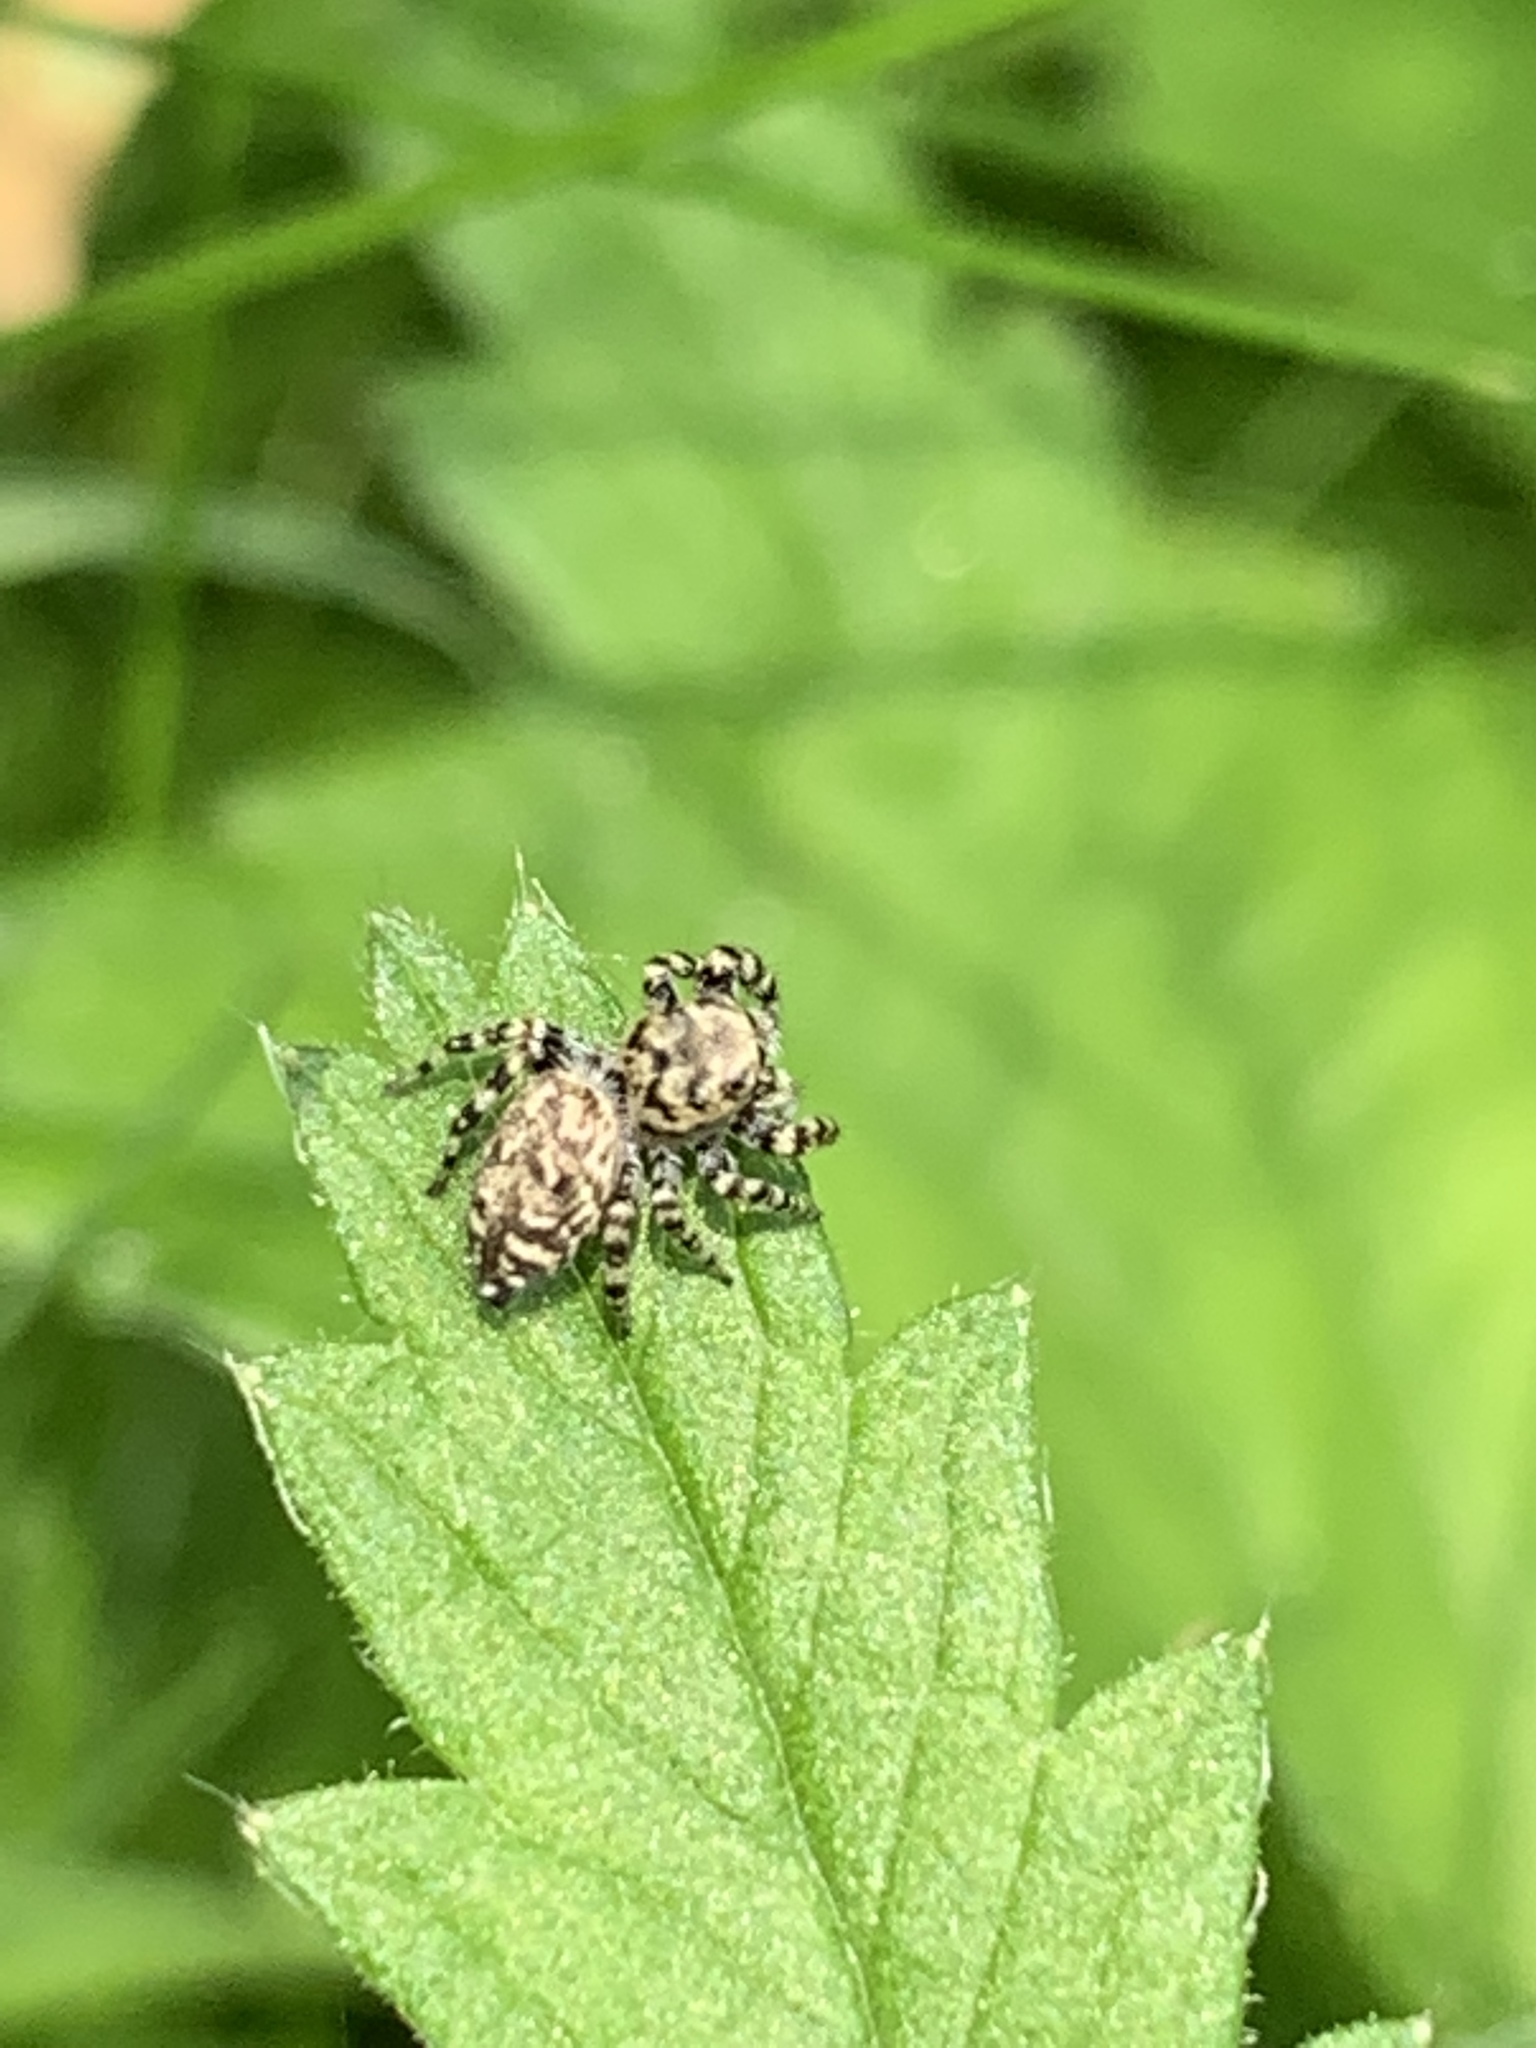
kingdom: Animalia
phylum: Arthropoda
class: Arachnida
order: Araneae
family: Salticidae
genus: Pelegrina
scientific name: Pelegrina galathea
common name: Jumping spiders
